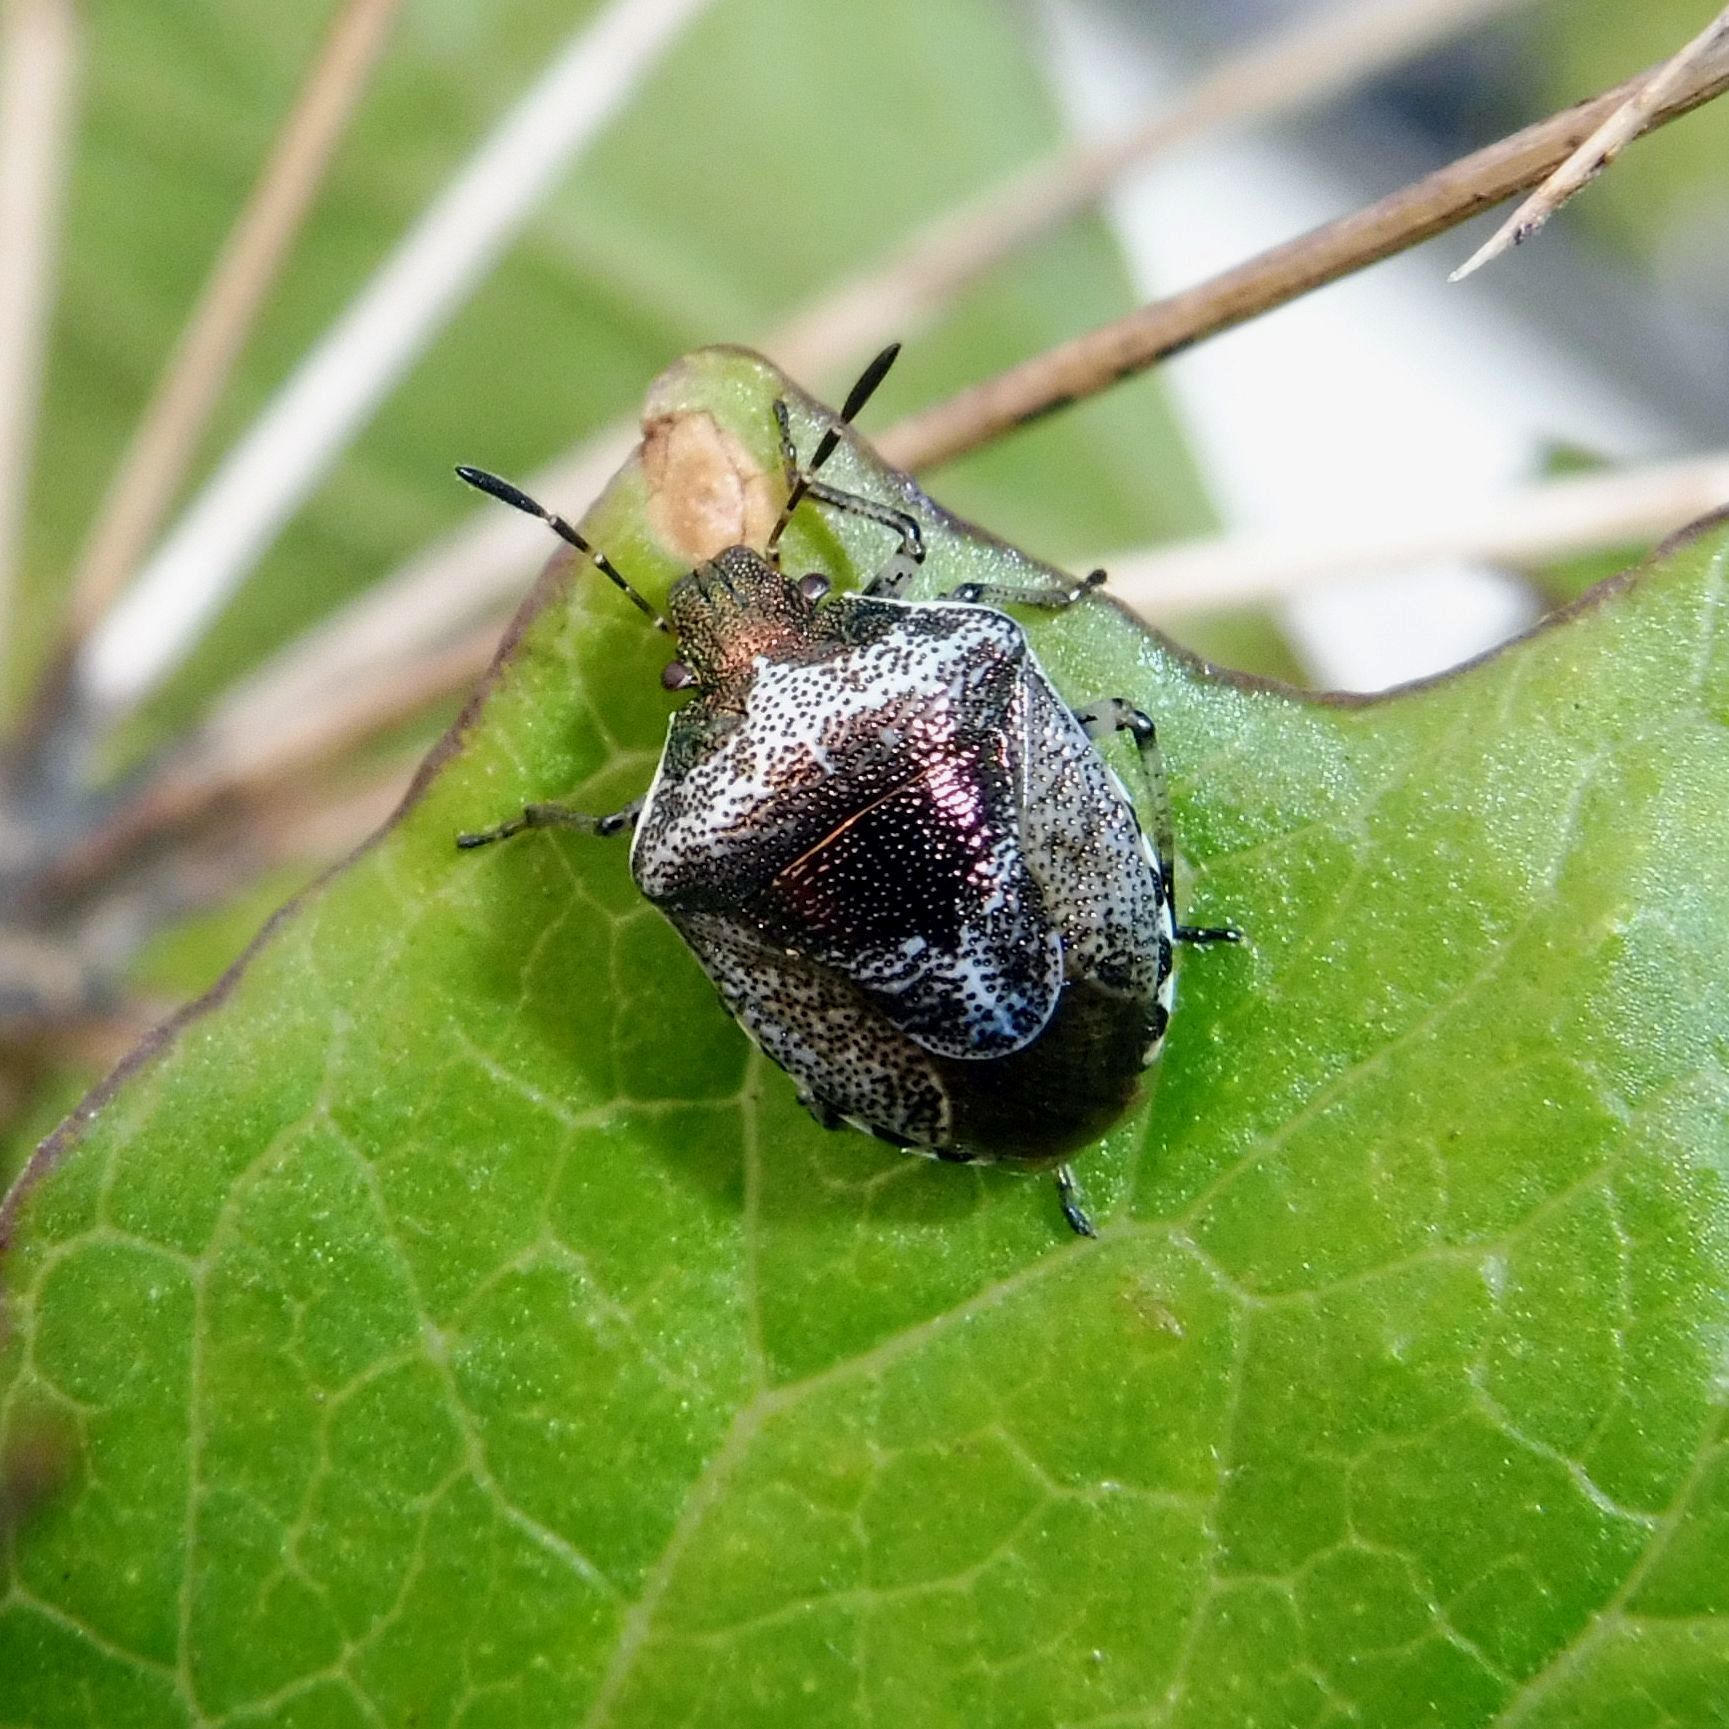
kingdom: Animalia
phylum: Arthropoda
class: Insecta
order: Hemiptera
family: Pentatomidae
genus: Eysarcoris
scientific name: Eysarcoris venustissimus
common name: Woundwort shieldbug
